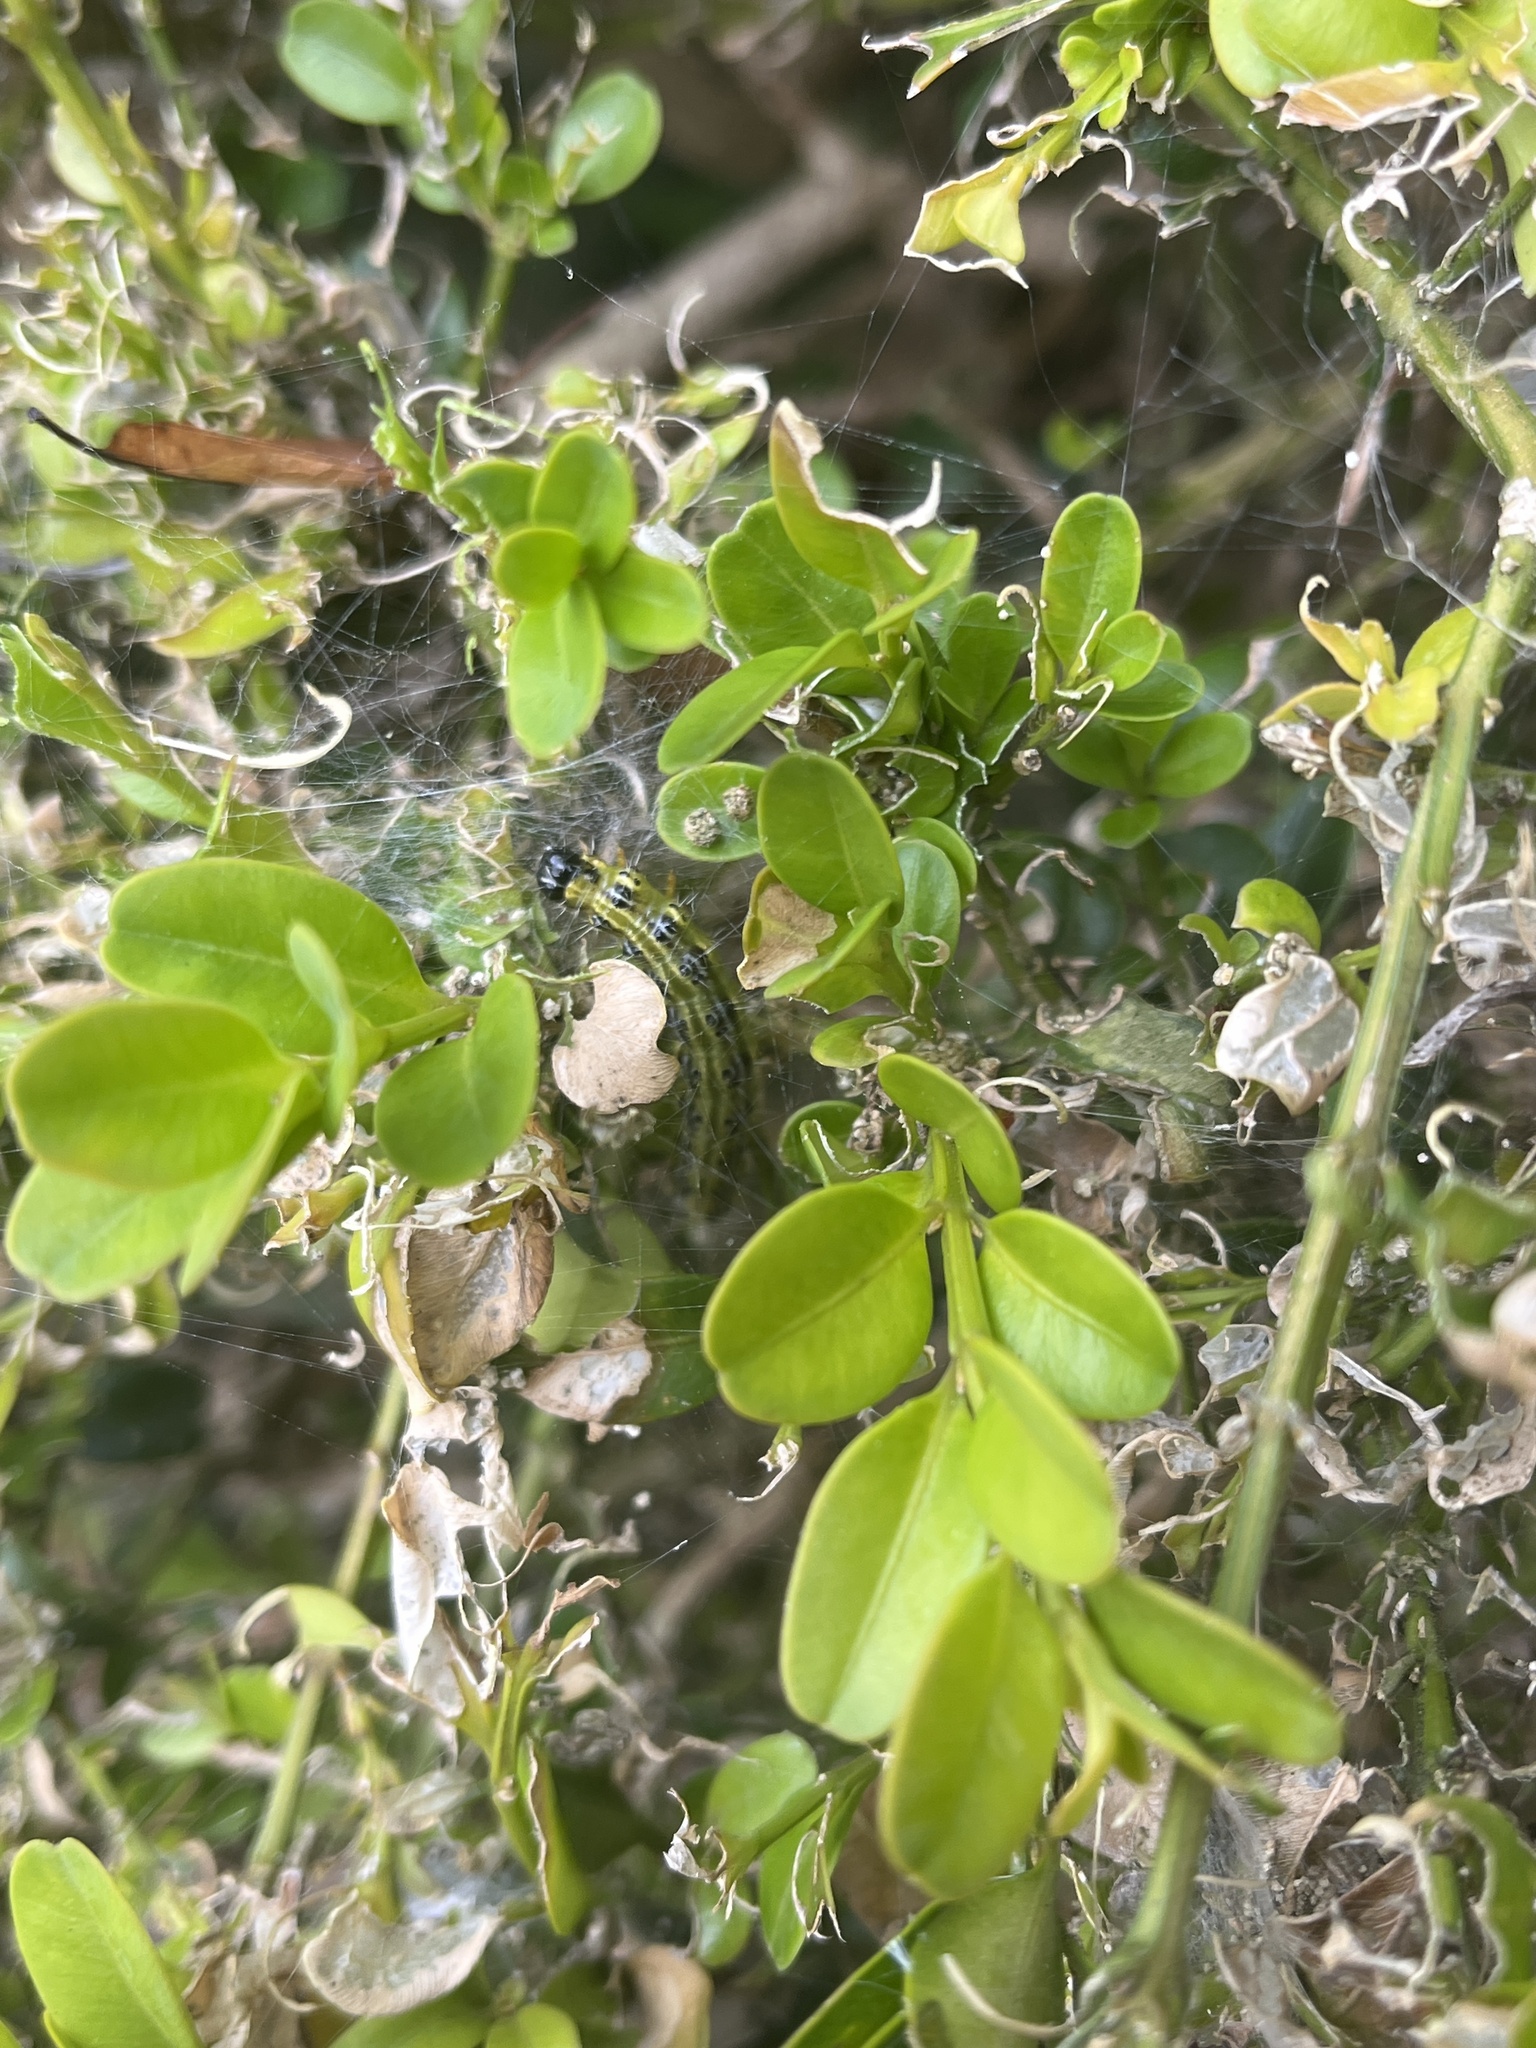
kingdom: Animalia
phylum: Arthropoda
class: Insecta
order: Lepidoptera
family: Crambidae
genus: Cydalima
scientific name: Cydalima perspectalis
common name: Box tree moth
